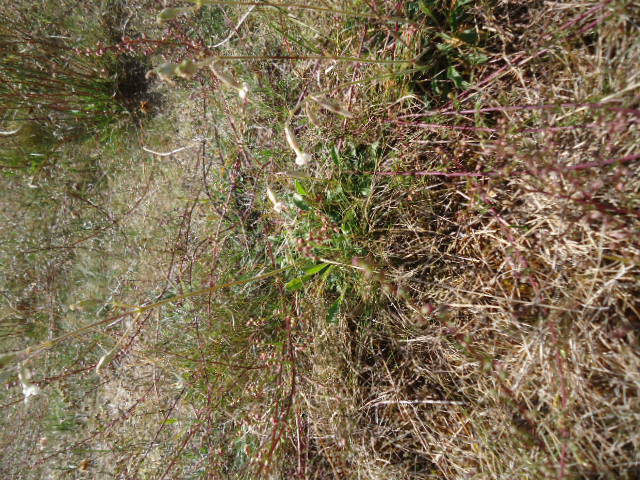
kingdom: Plantae
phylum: Tracheophyta
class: Magnoliopsida
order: Caryophyllales
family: Caryophyllaceae
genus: Silene
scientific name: Silene nutans
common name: Nottingham catchfly
